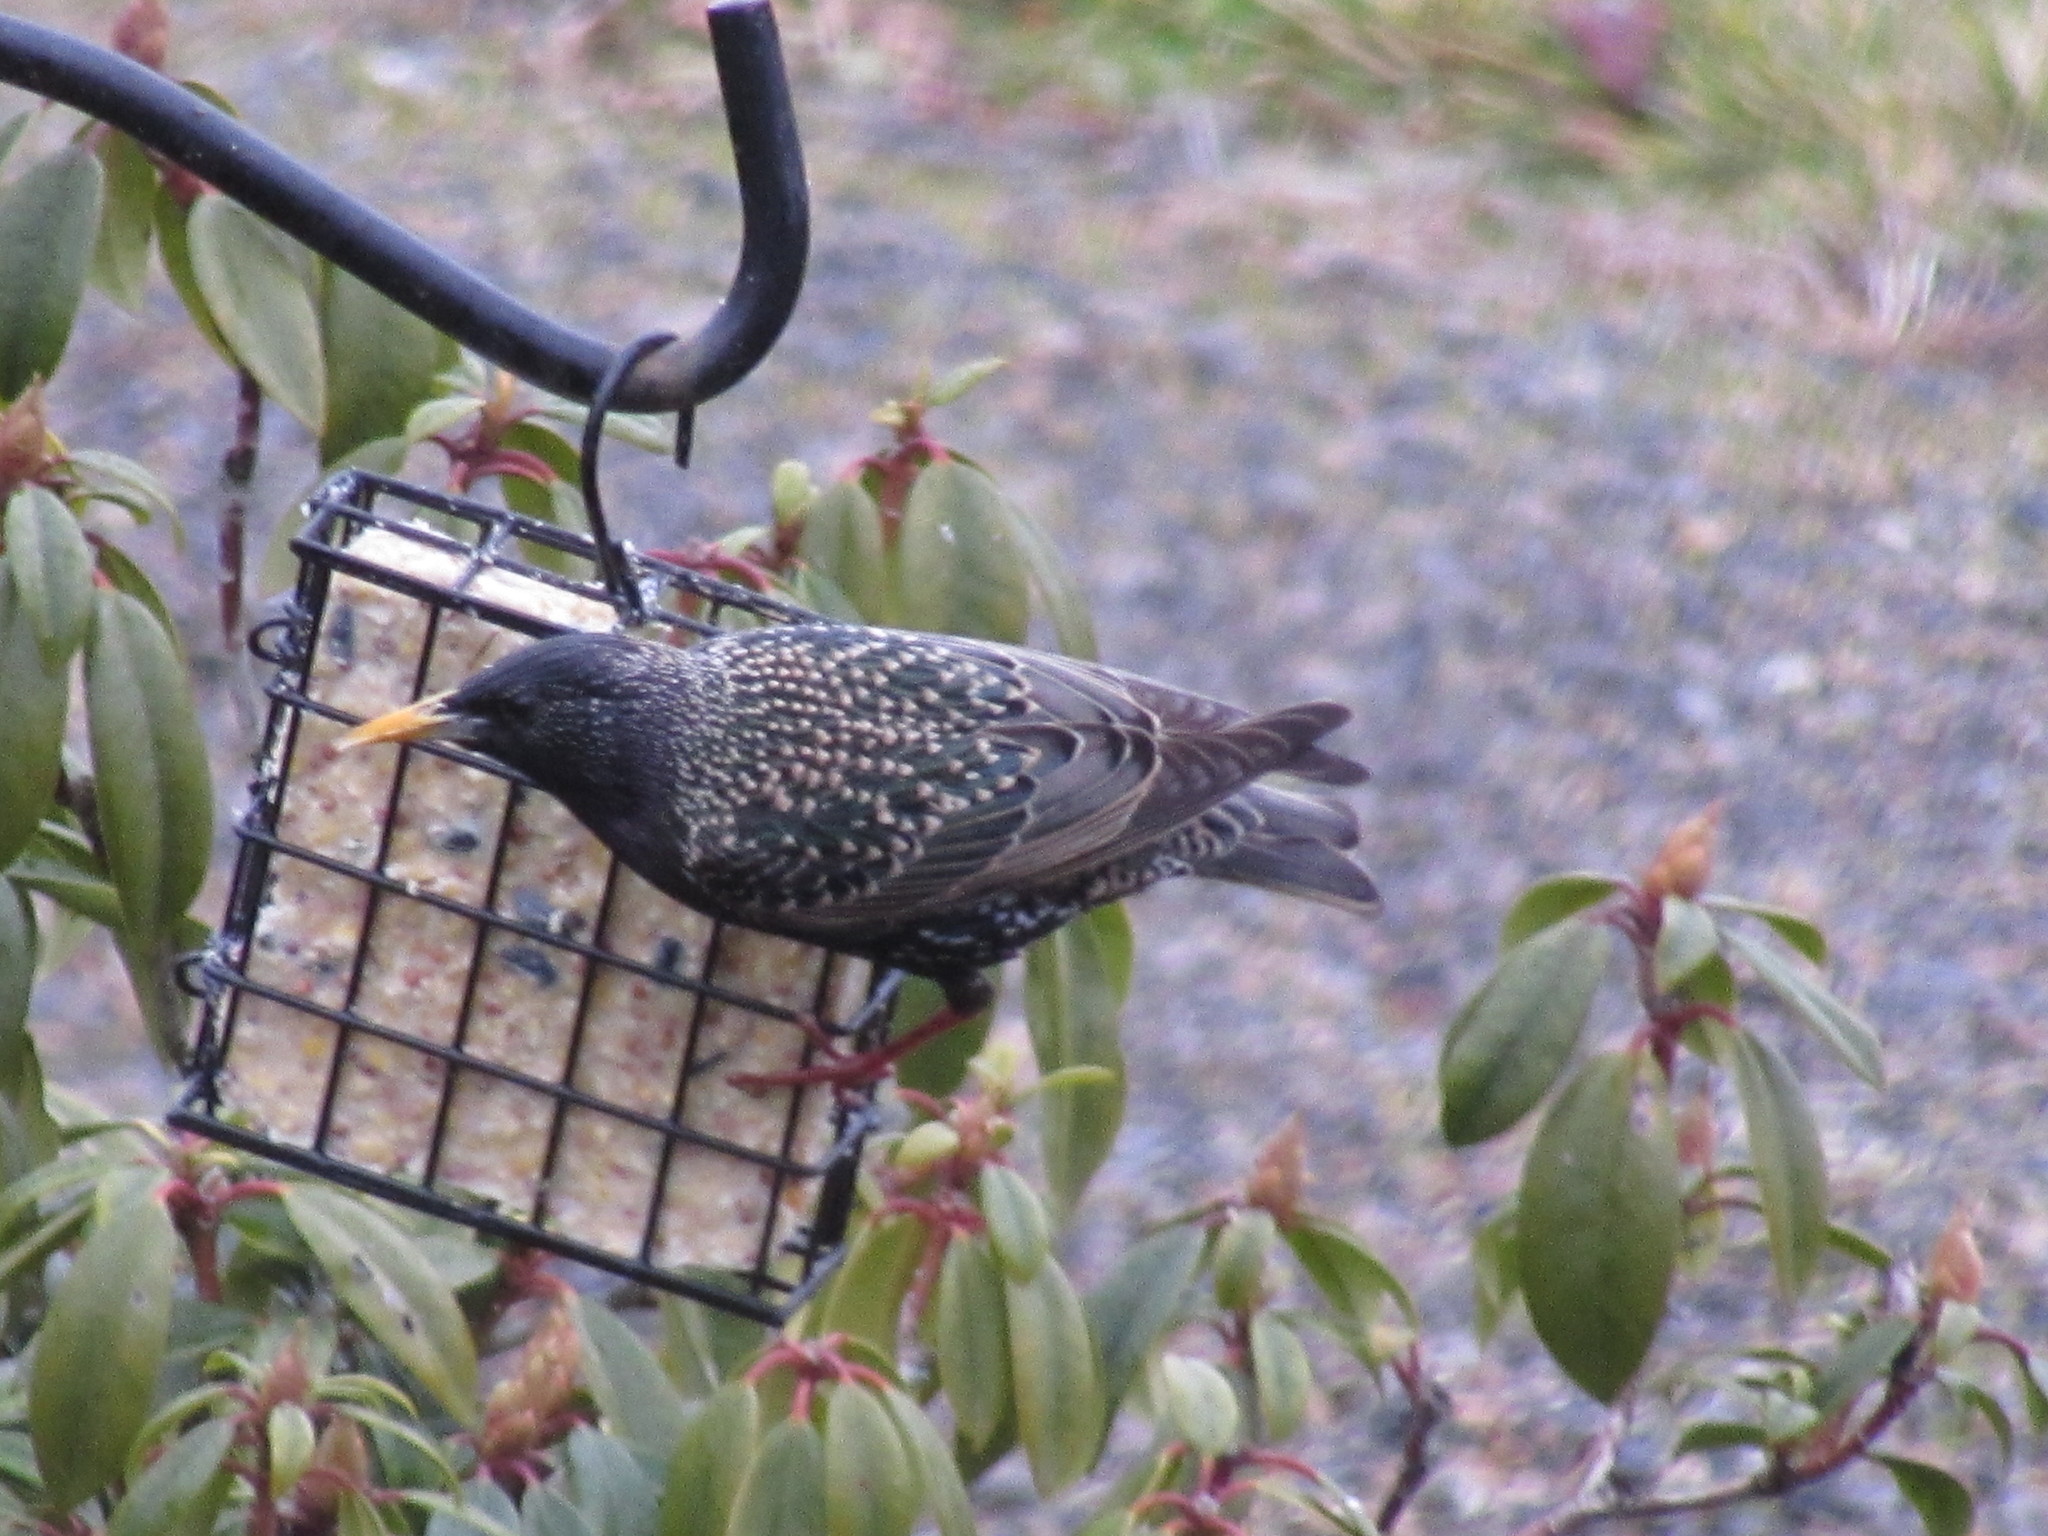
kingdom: Animalia
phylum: Chordata
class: Aves
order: Passeriformes
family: Sturnidae
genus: Sturnus
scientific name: Sturnus vulgaris
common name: Common starling
